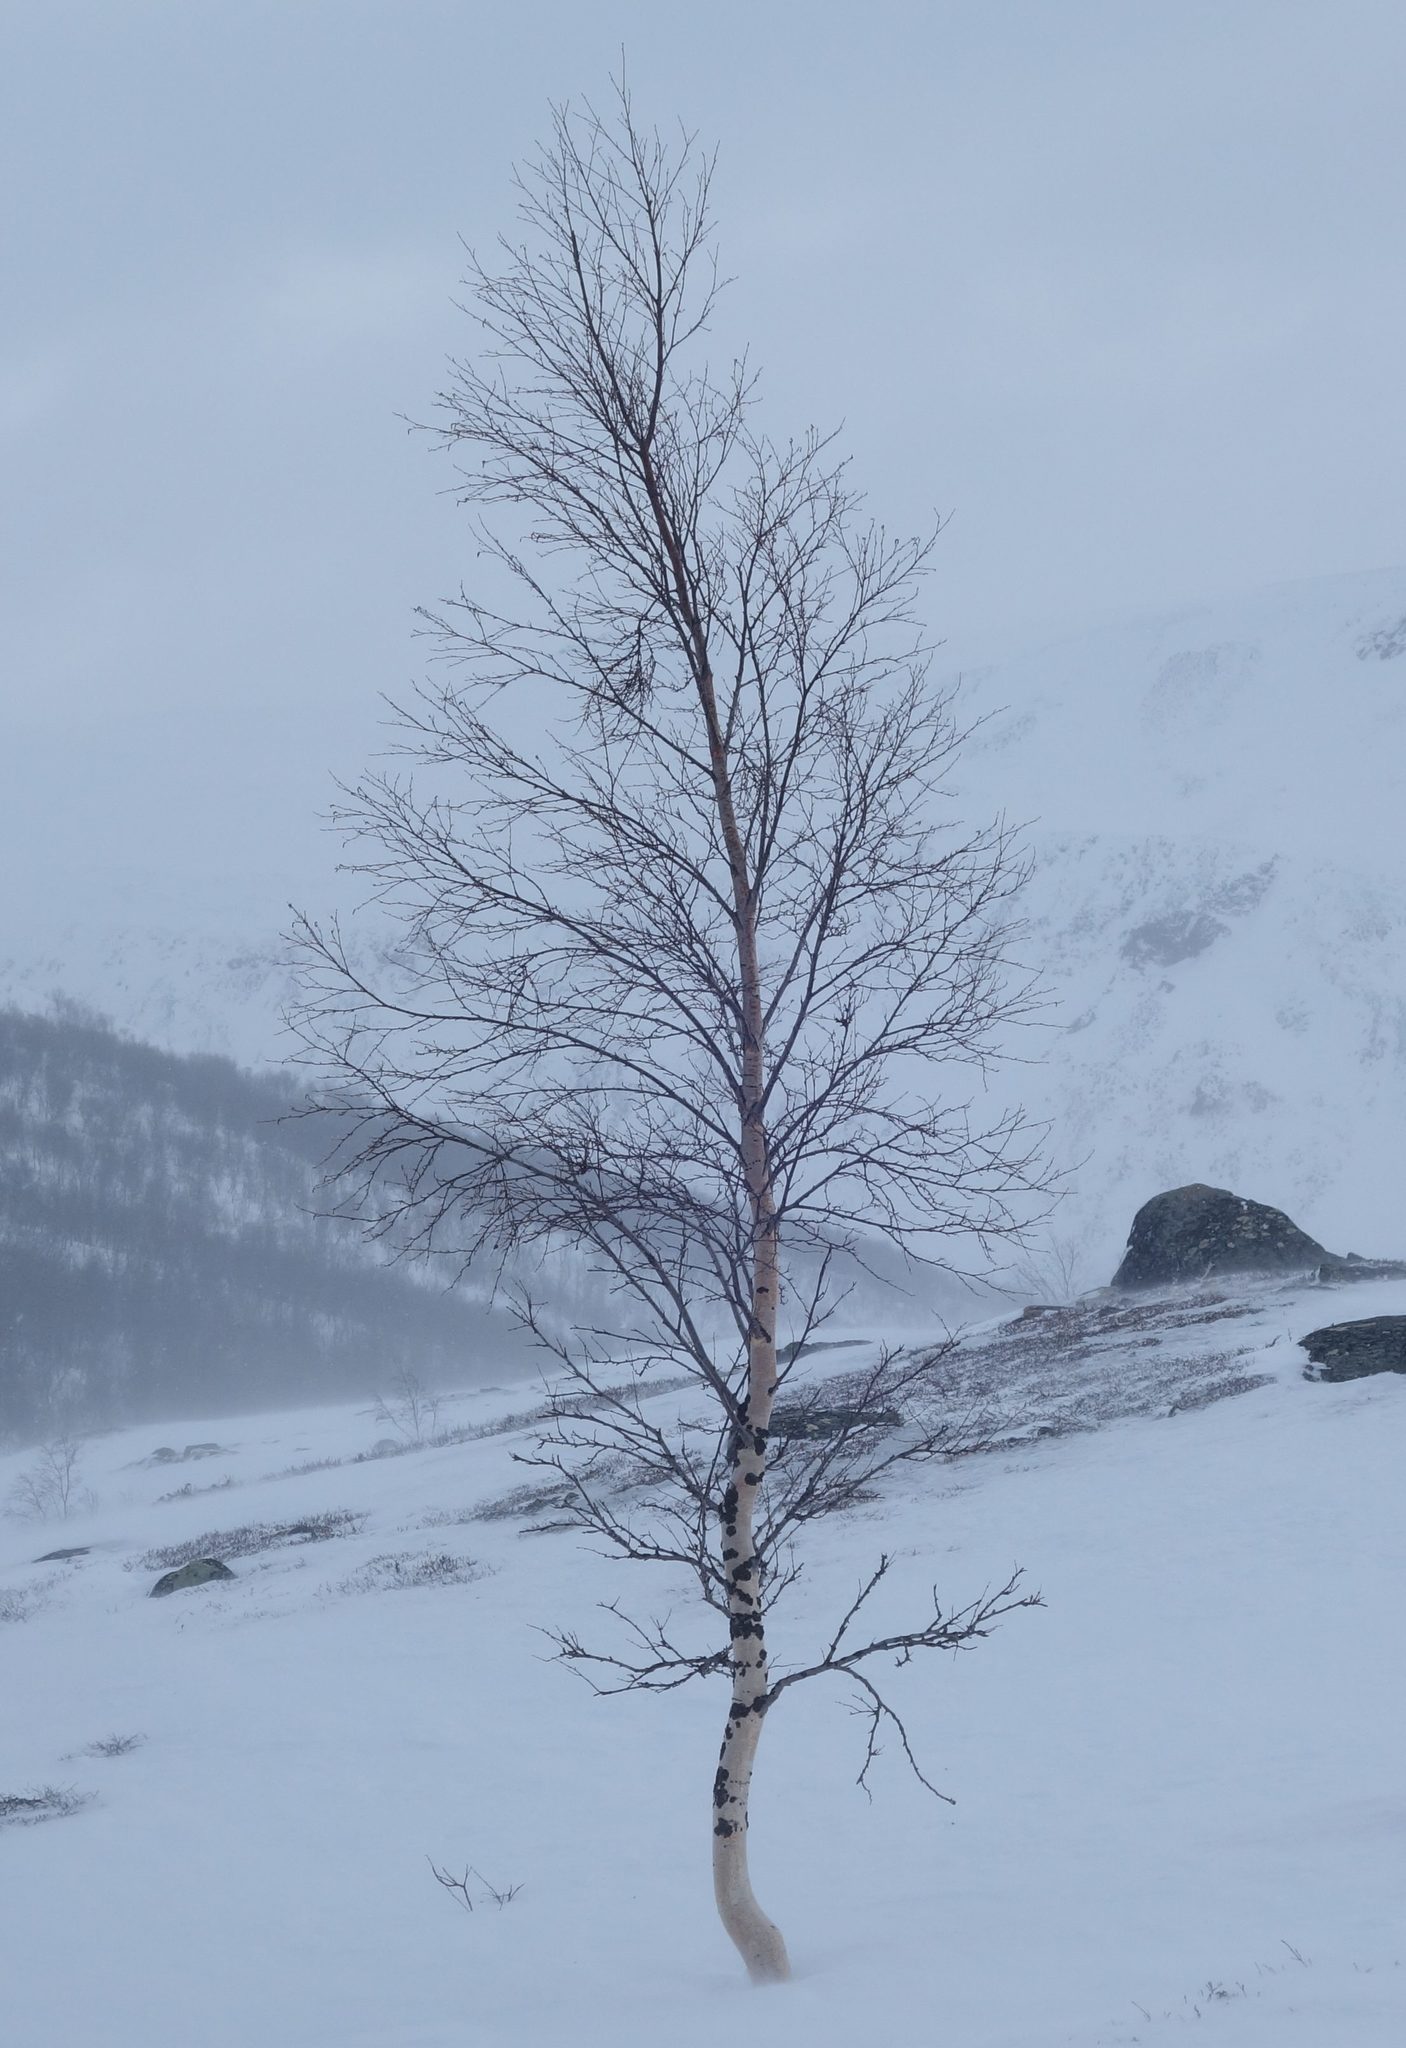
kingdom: Plantae
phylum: Tracheophyta
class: Magnoliopsida
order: Fagales
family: Betulaceae
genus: Betula
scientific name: Betula pubescens
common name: Downy birch
